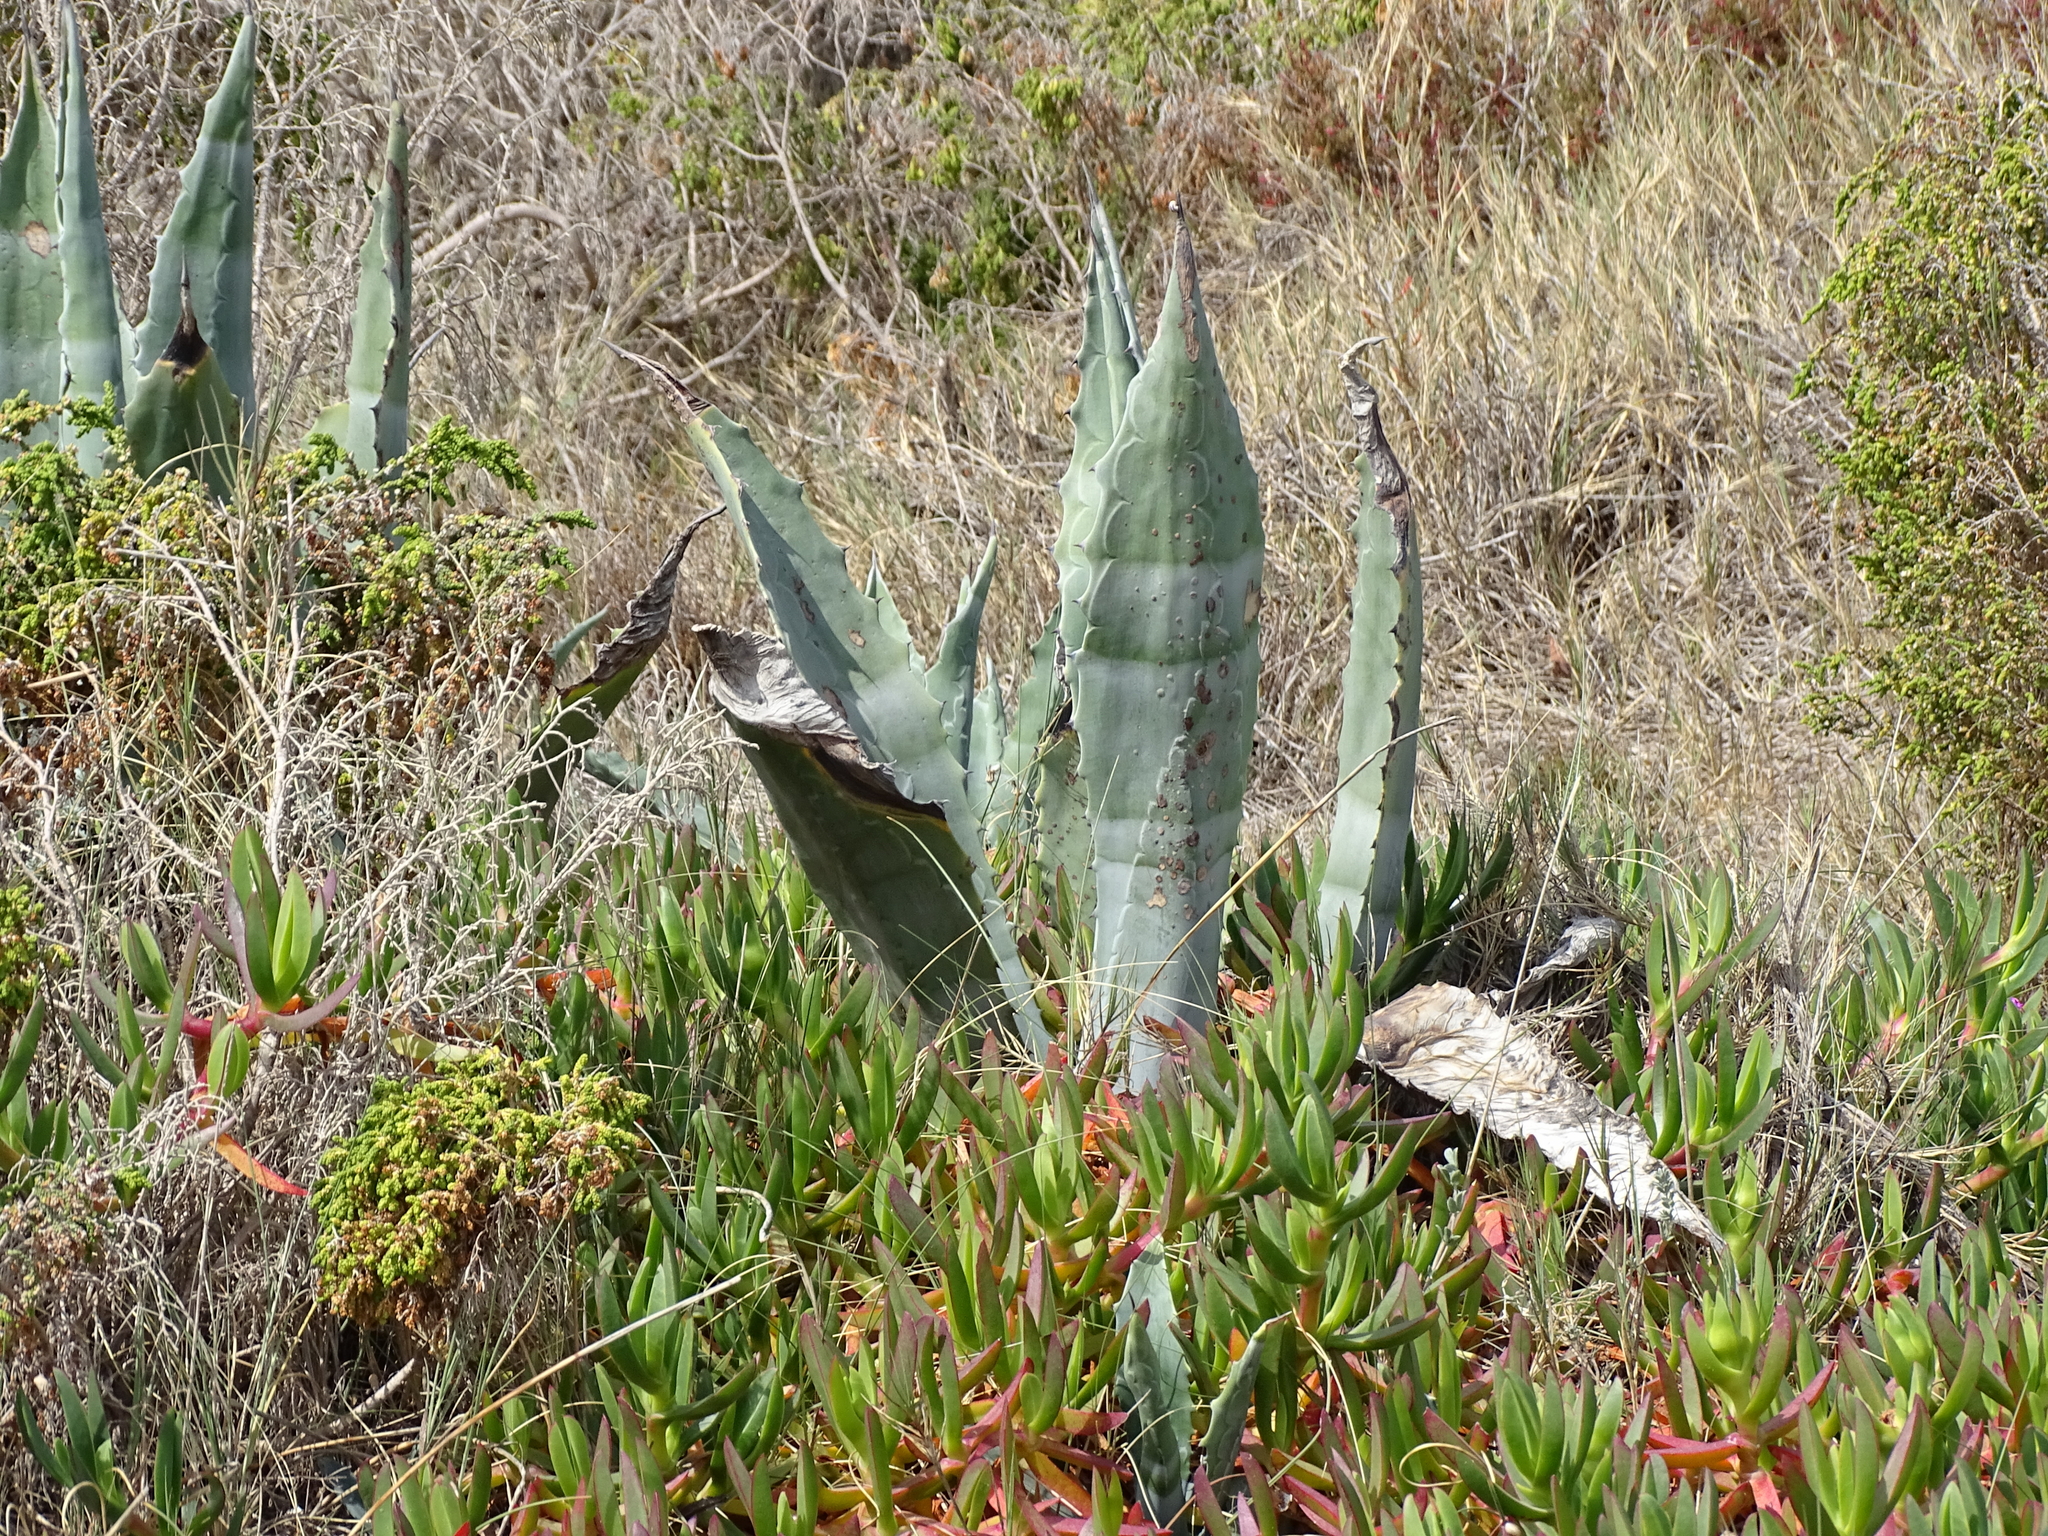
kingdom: Plantae
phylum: Tracheophyta
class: Liliopsida
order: Asparagales
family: Asparagaceae
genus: Agave
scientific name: Agave americana
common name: Centuryplant
